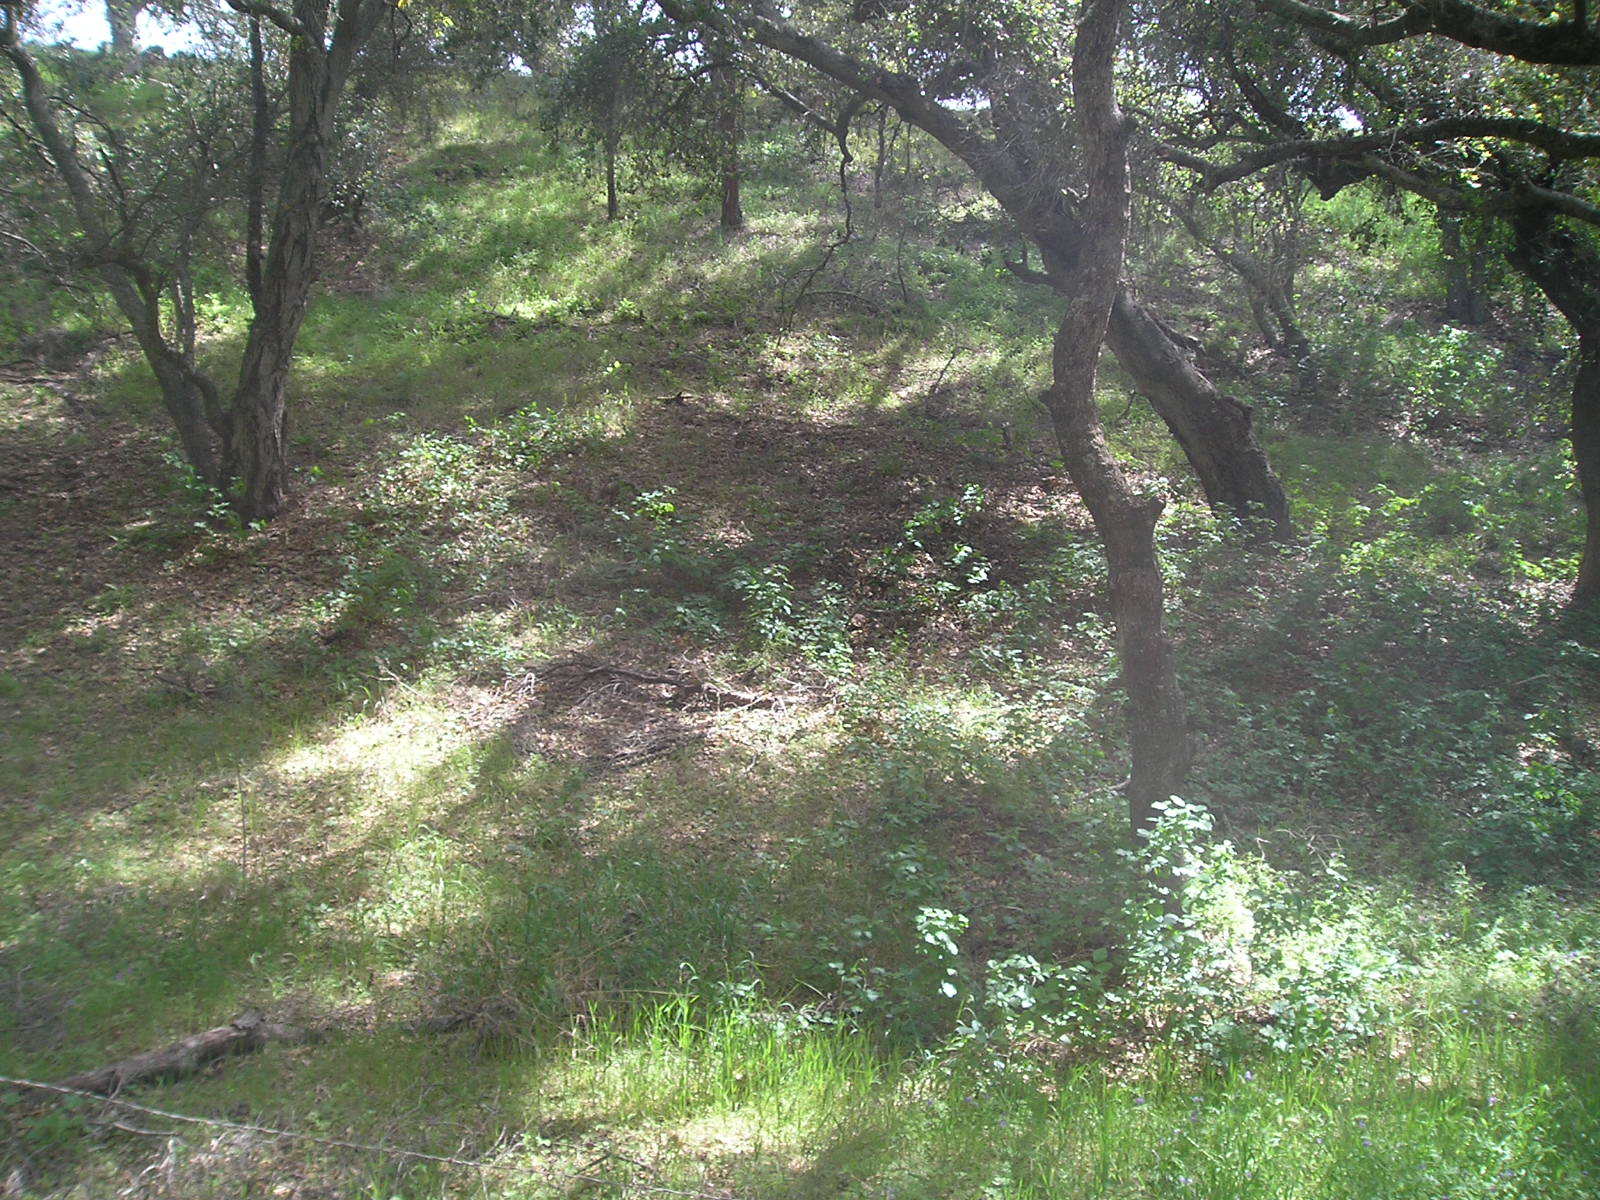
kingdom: Plantae
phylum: Tracheophyta
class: Magnoliopsida
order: Fagales
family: Fagaceae
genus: Quercus
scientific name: Quercus agrifolia
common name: California live oak
